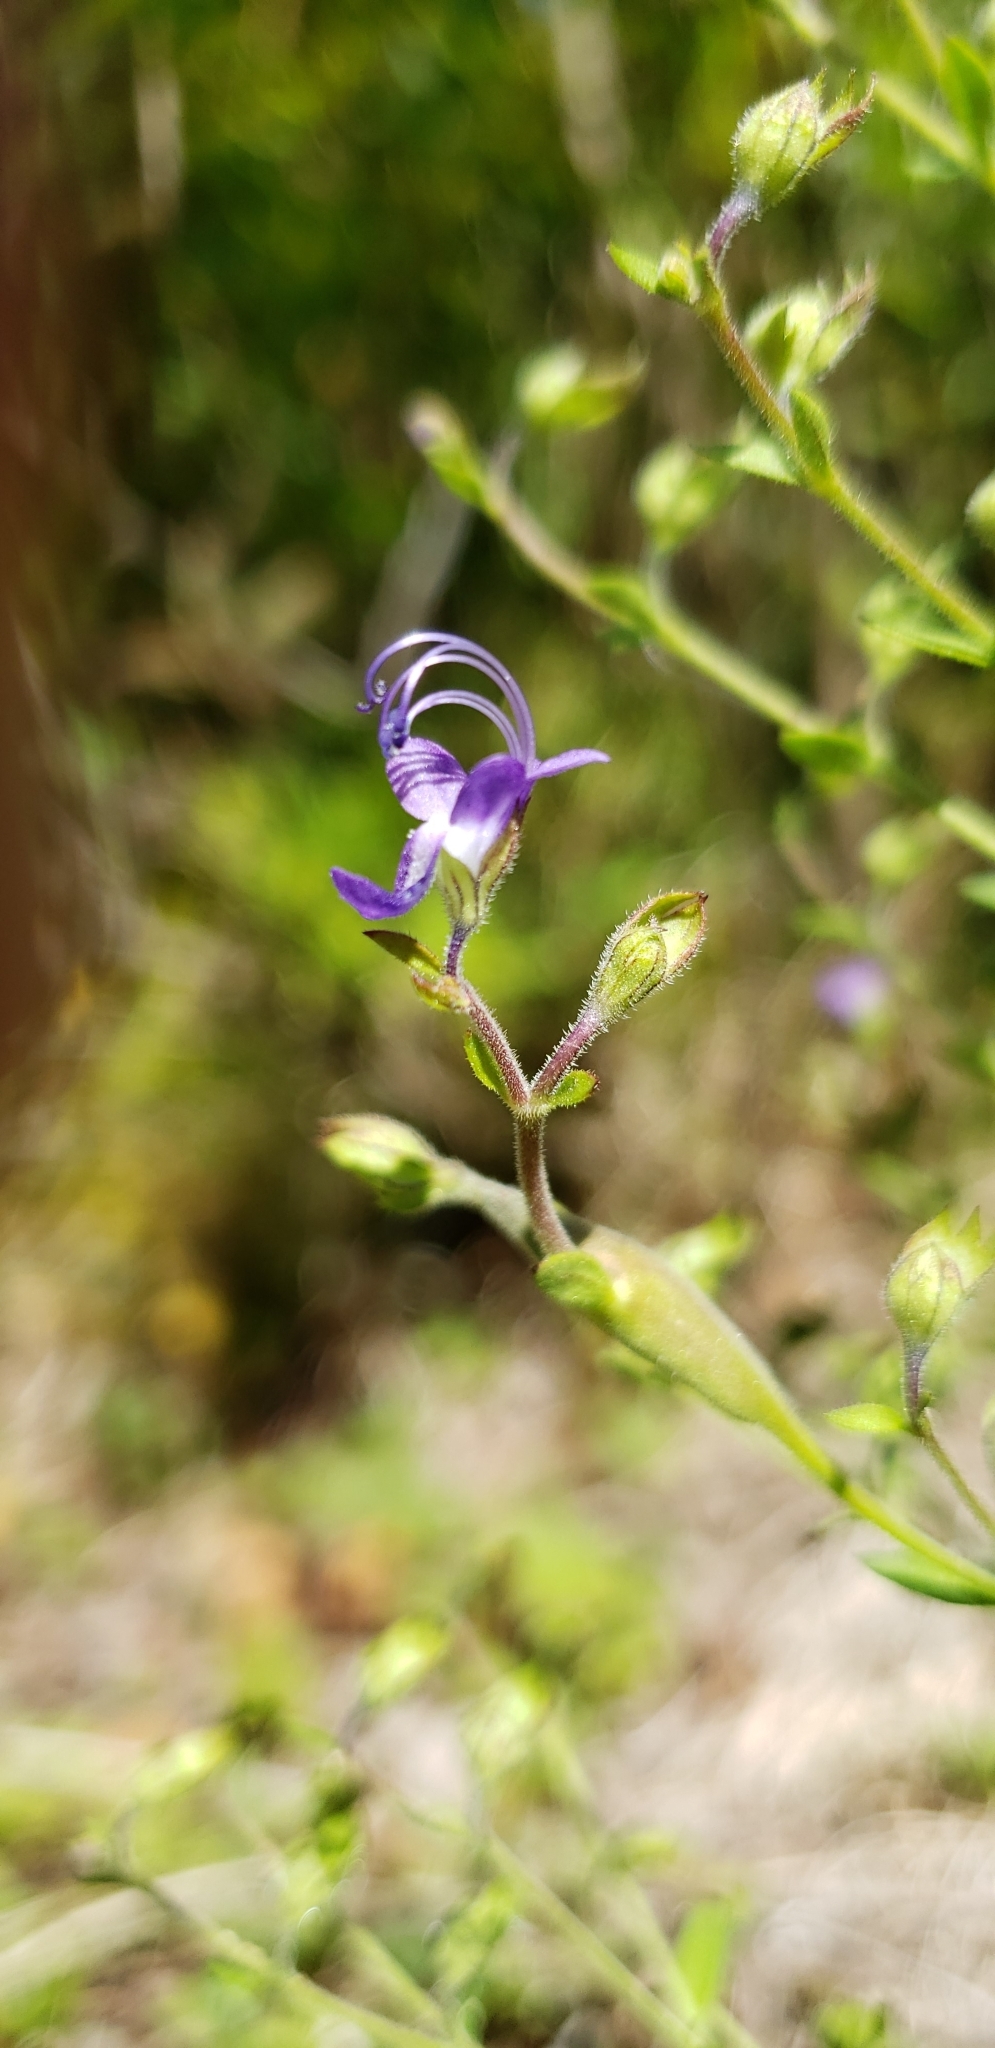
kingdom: Plantae
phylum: Tracheophyta
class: Magnoliopsida
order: Lamiales
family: Lamiaceae
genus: Trichostema
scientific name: Trichostema dichotomum
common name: Bastard pennyroyal
